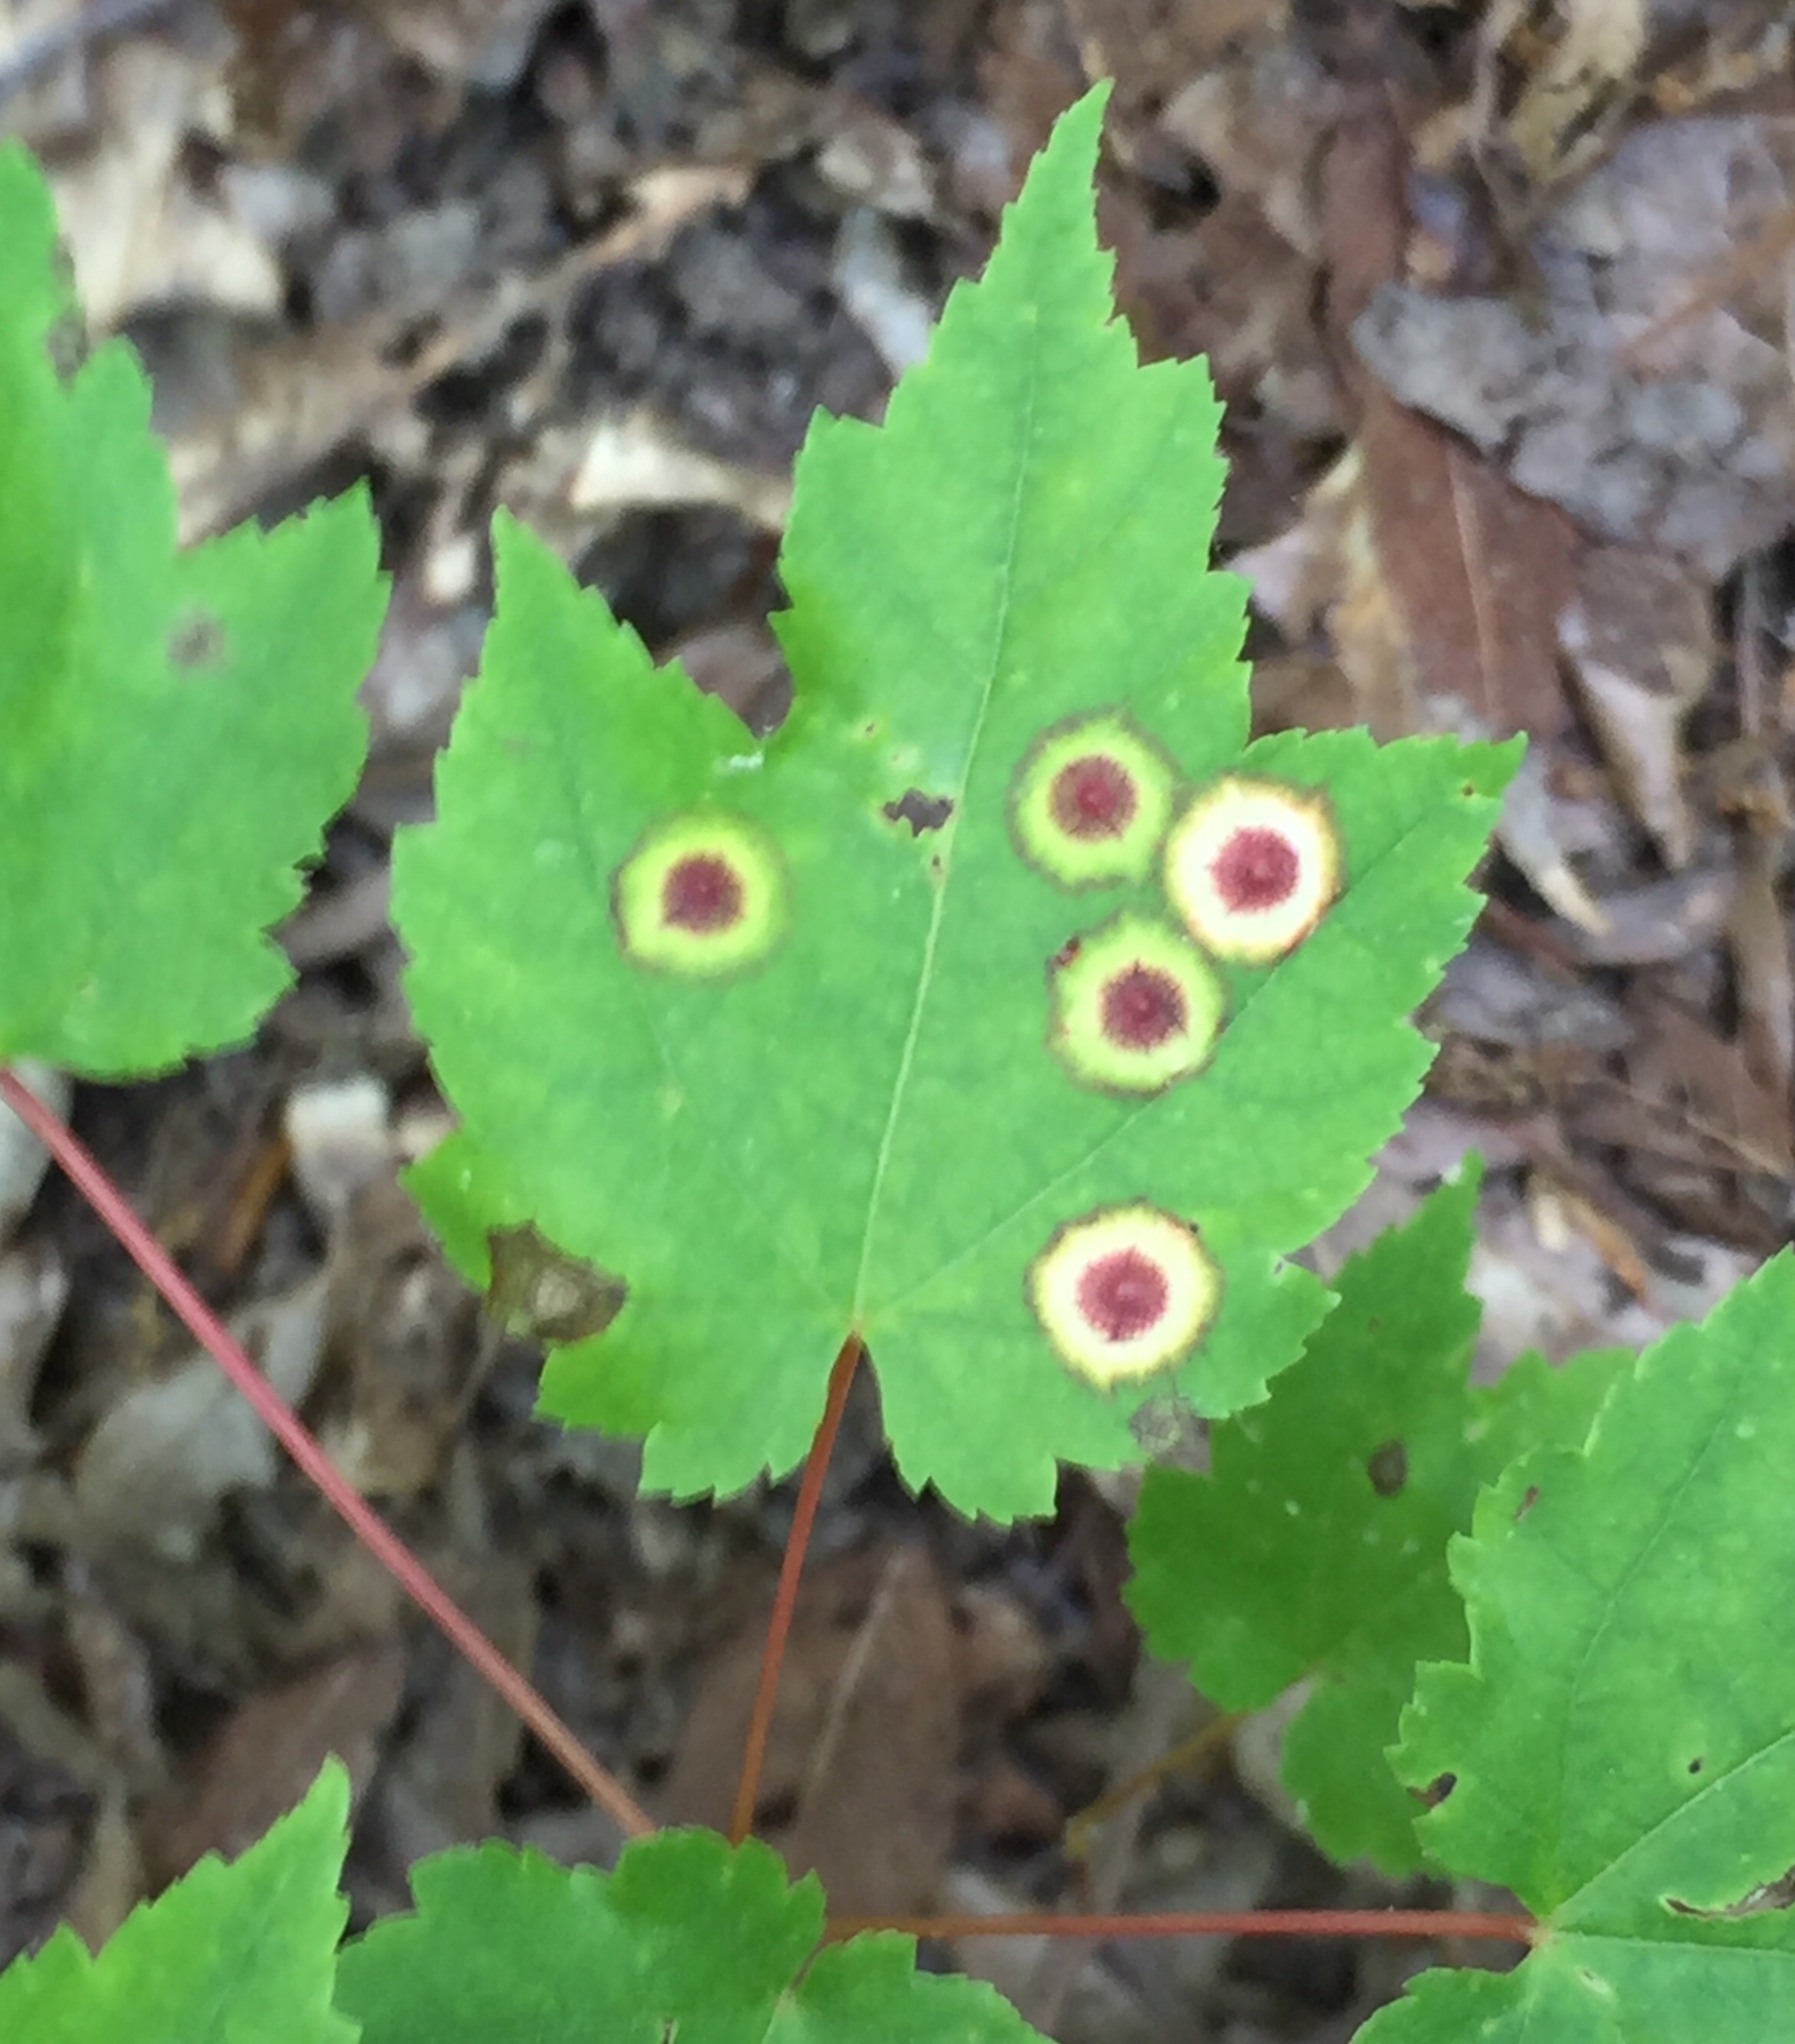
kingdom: Animalia
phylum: Arthropoda
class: Insecta
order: Diptera
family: Cecidomyiidae
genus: Acericecis
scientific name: Acericecis ocellaris
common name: Ocellate gall midge
